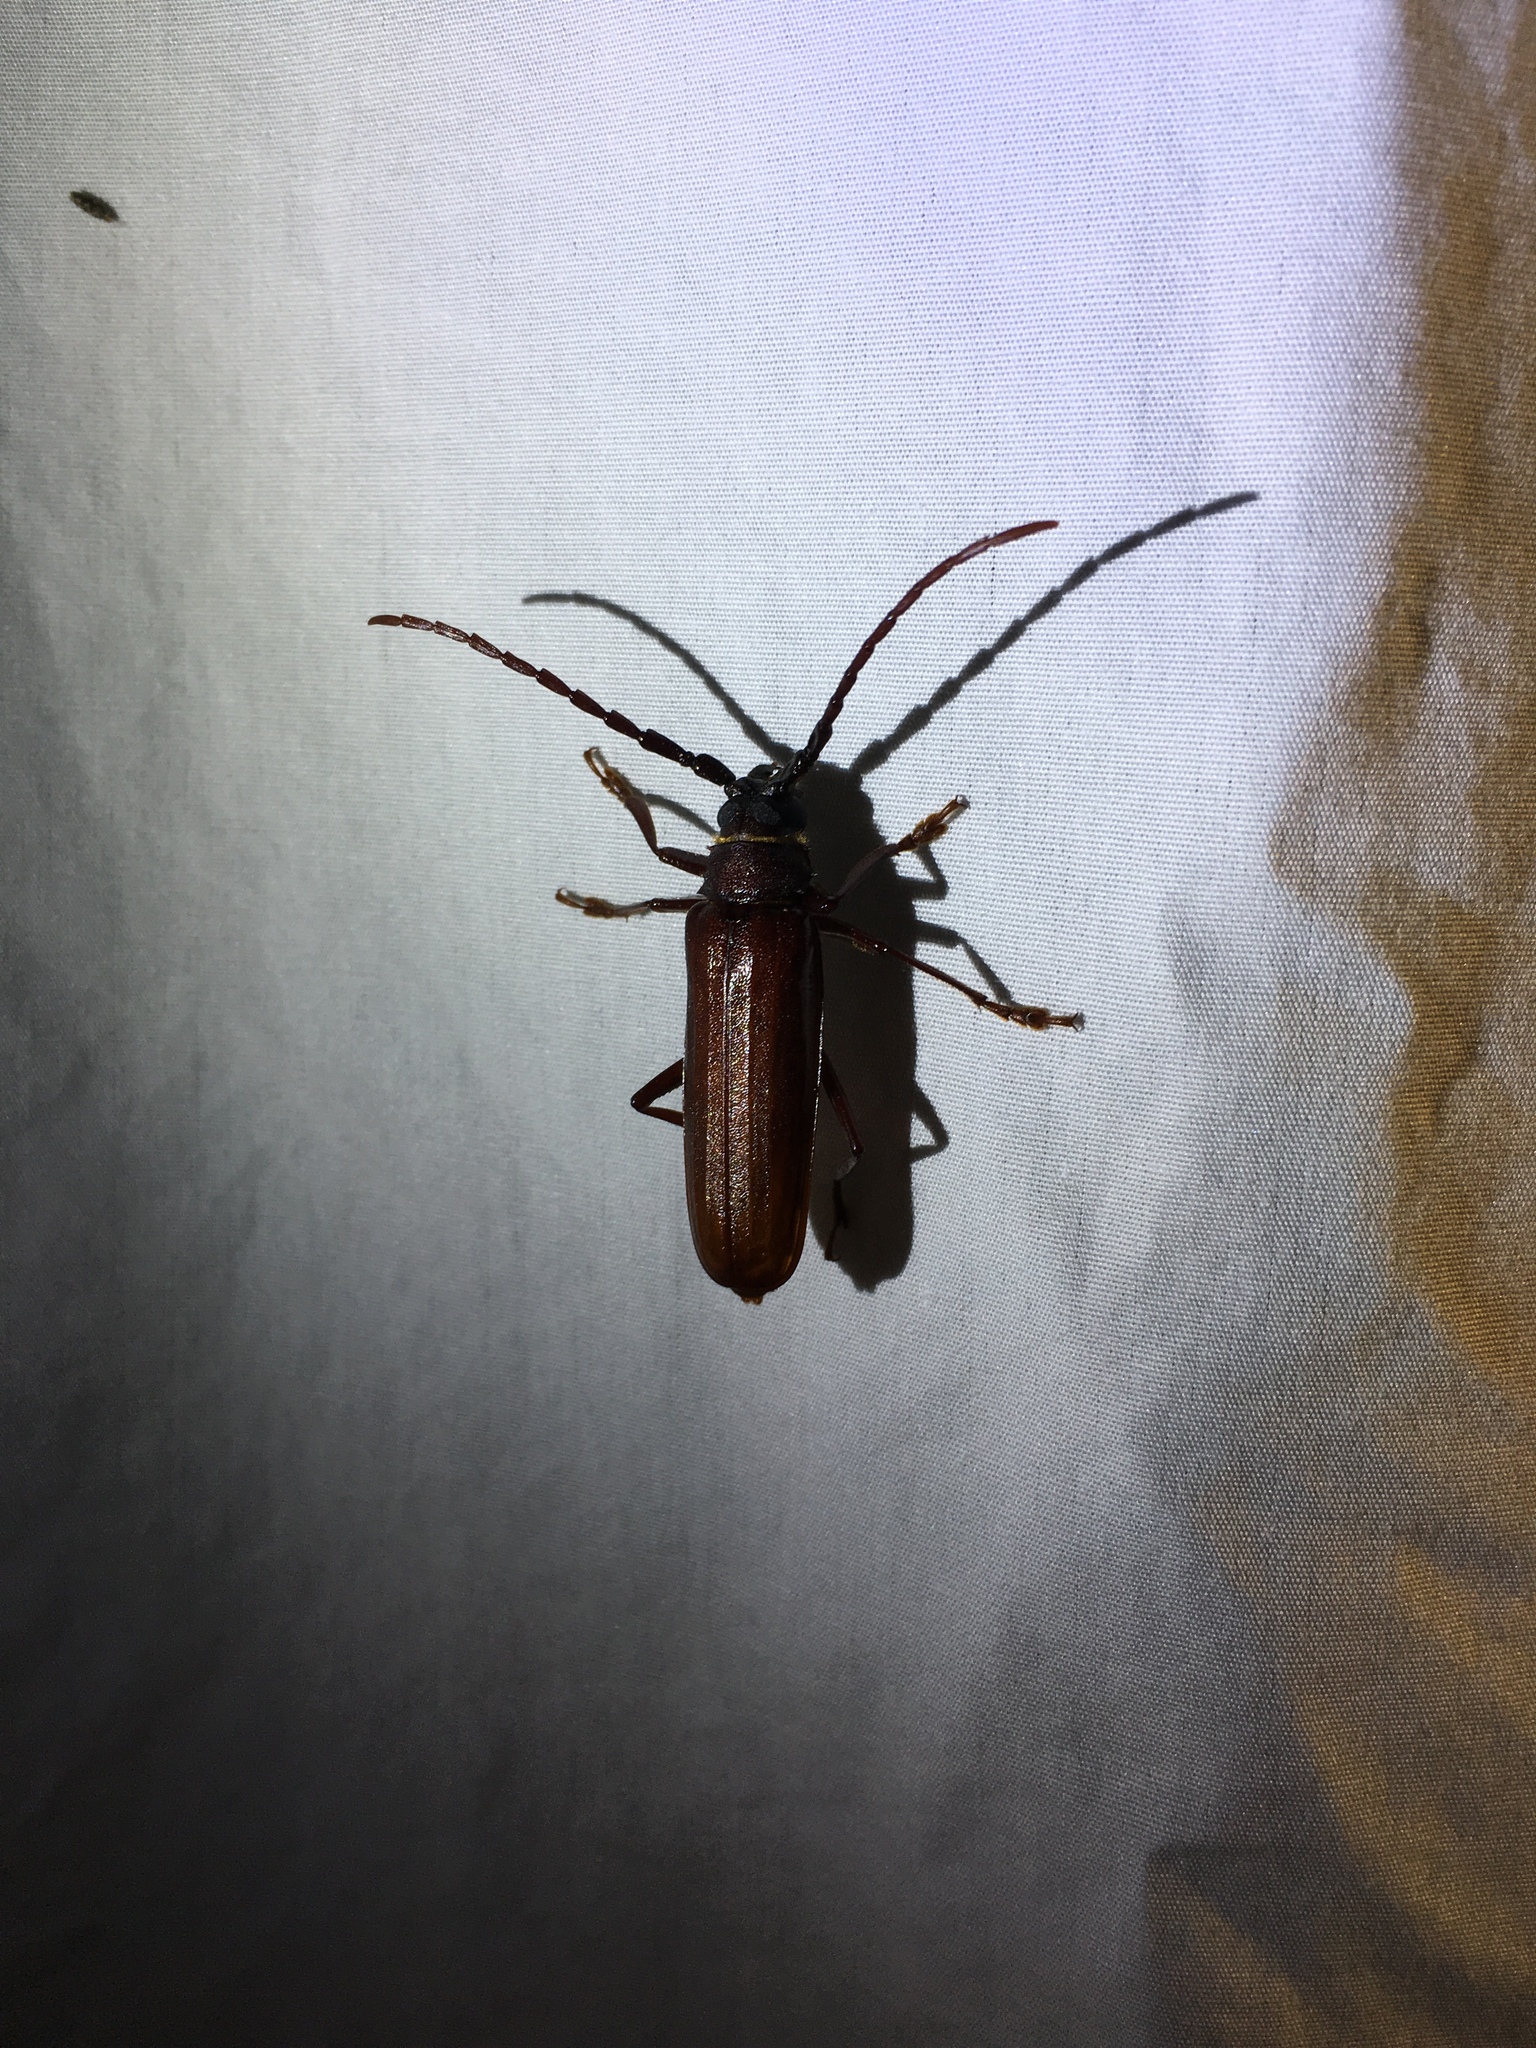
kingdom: Animalia
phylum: Arthropoda
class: Insecta
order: Coleoptera
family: Cerambycidae
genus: Orthosoma
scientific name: Orthosoma brunneum
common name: Brown prionid beetle
